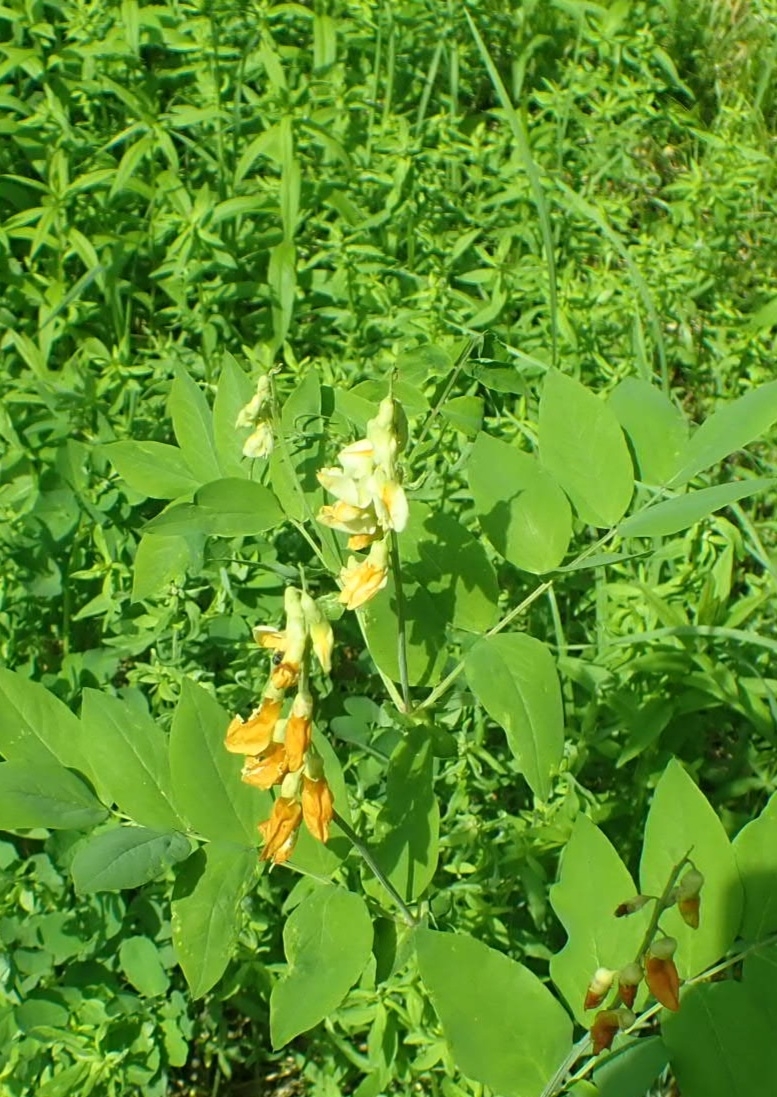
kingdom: Plantae
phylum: Tracheophyta
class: Magnoliopsida
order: Fabales
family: Fabaceae
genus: Lathyrus
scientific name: Lathyrus gmelinii
